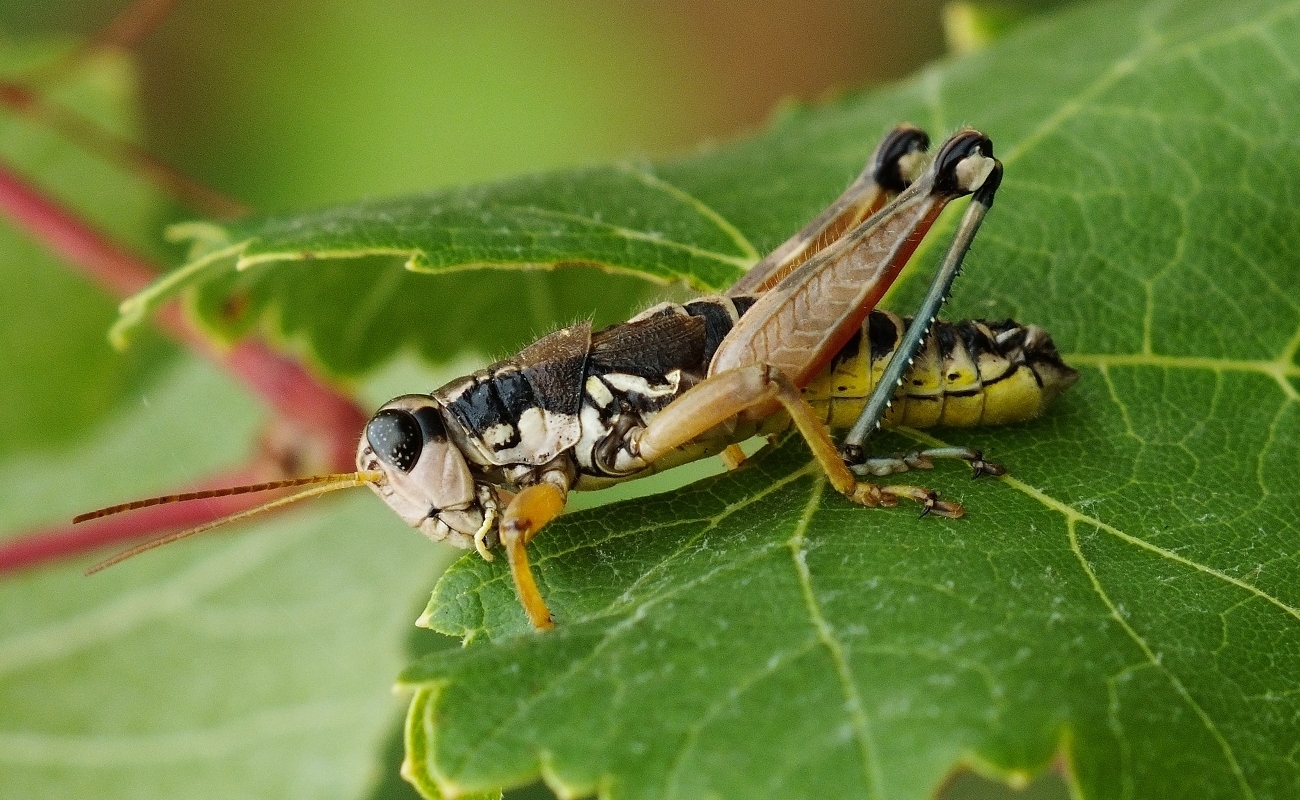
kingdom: Animalia
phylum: Arthropoda
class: Insecta
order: Orthoptera
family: Acrididae
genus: Podisma
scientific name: Podisma pedestris
